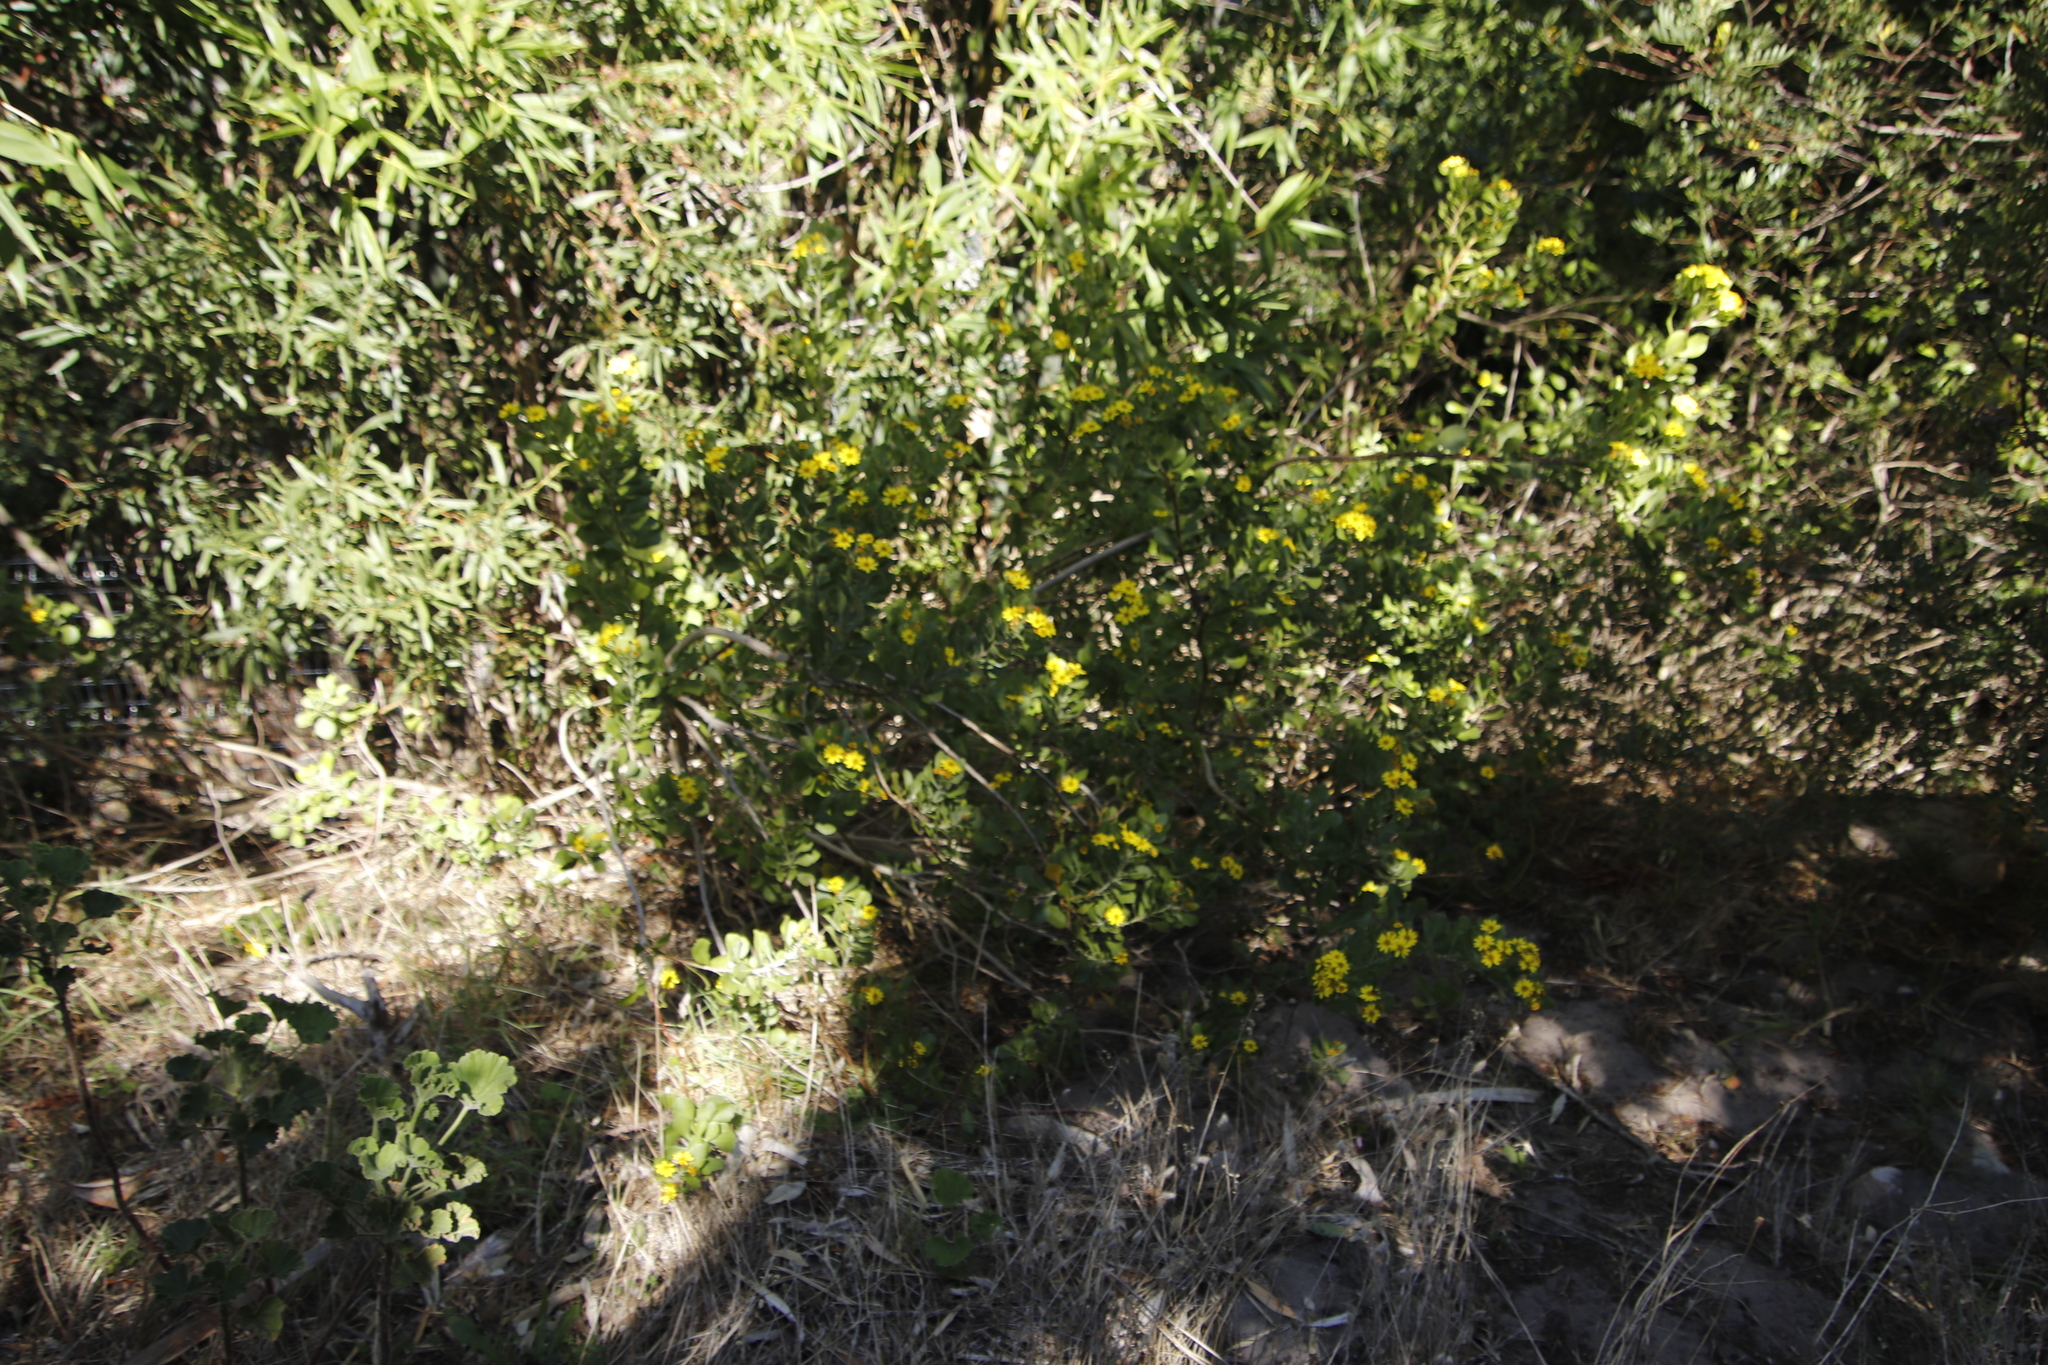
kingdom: Plantae
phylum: Tracheophyta
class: Magnoliopsida
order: Asterales
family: Asteraceae
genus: Osteospermum
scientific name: Osteospermum moniliferum
